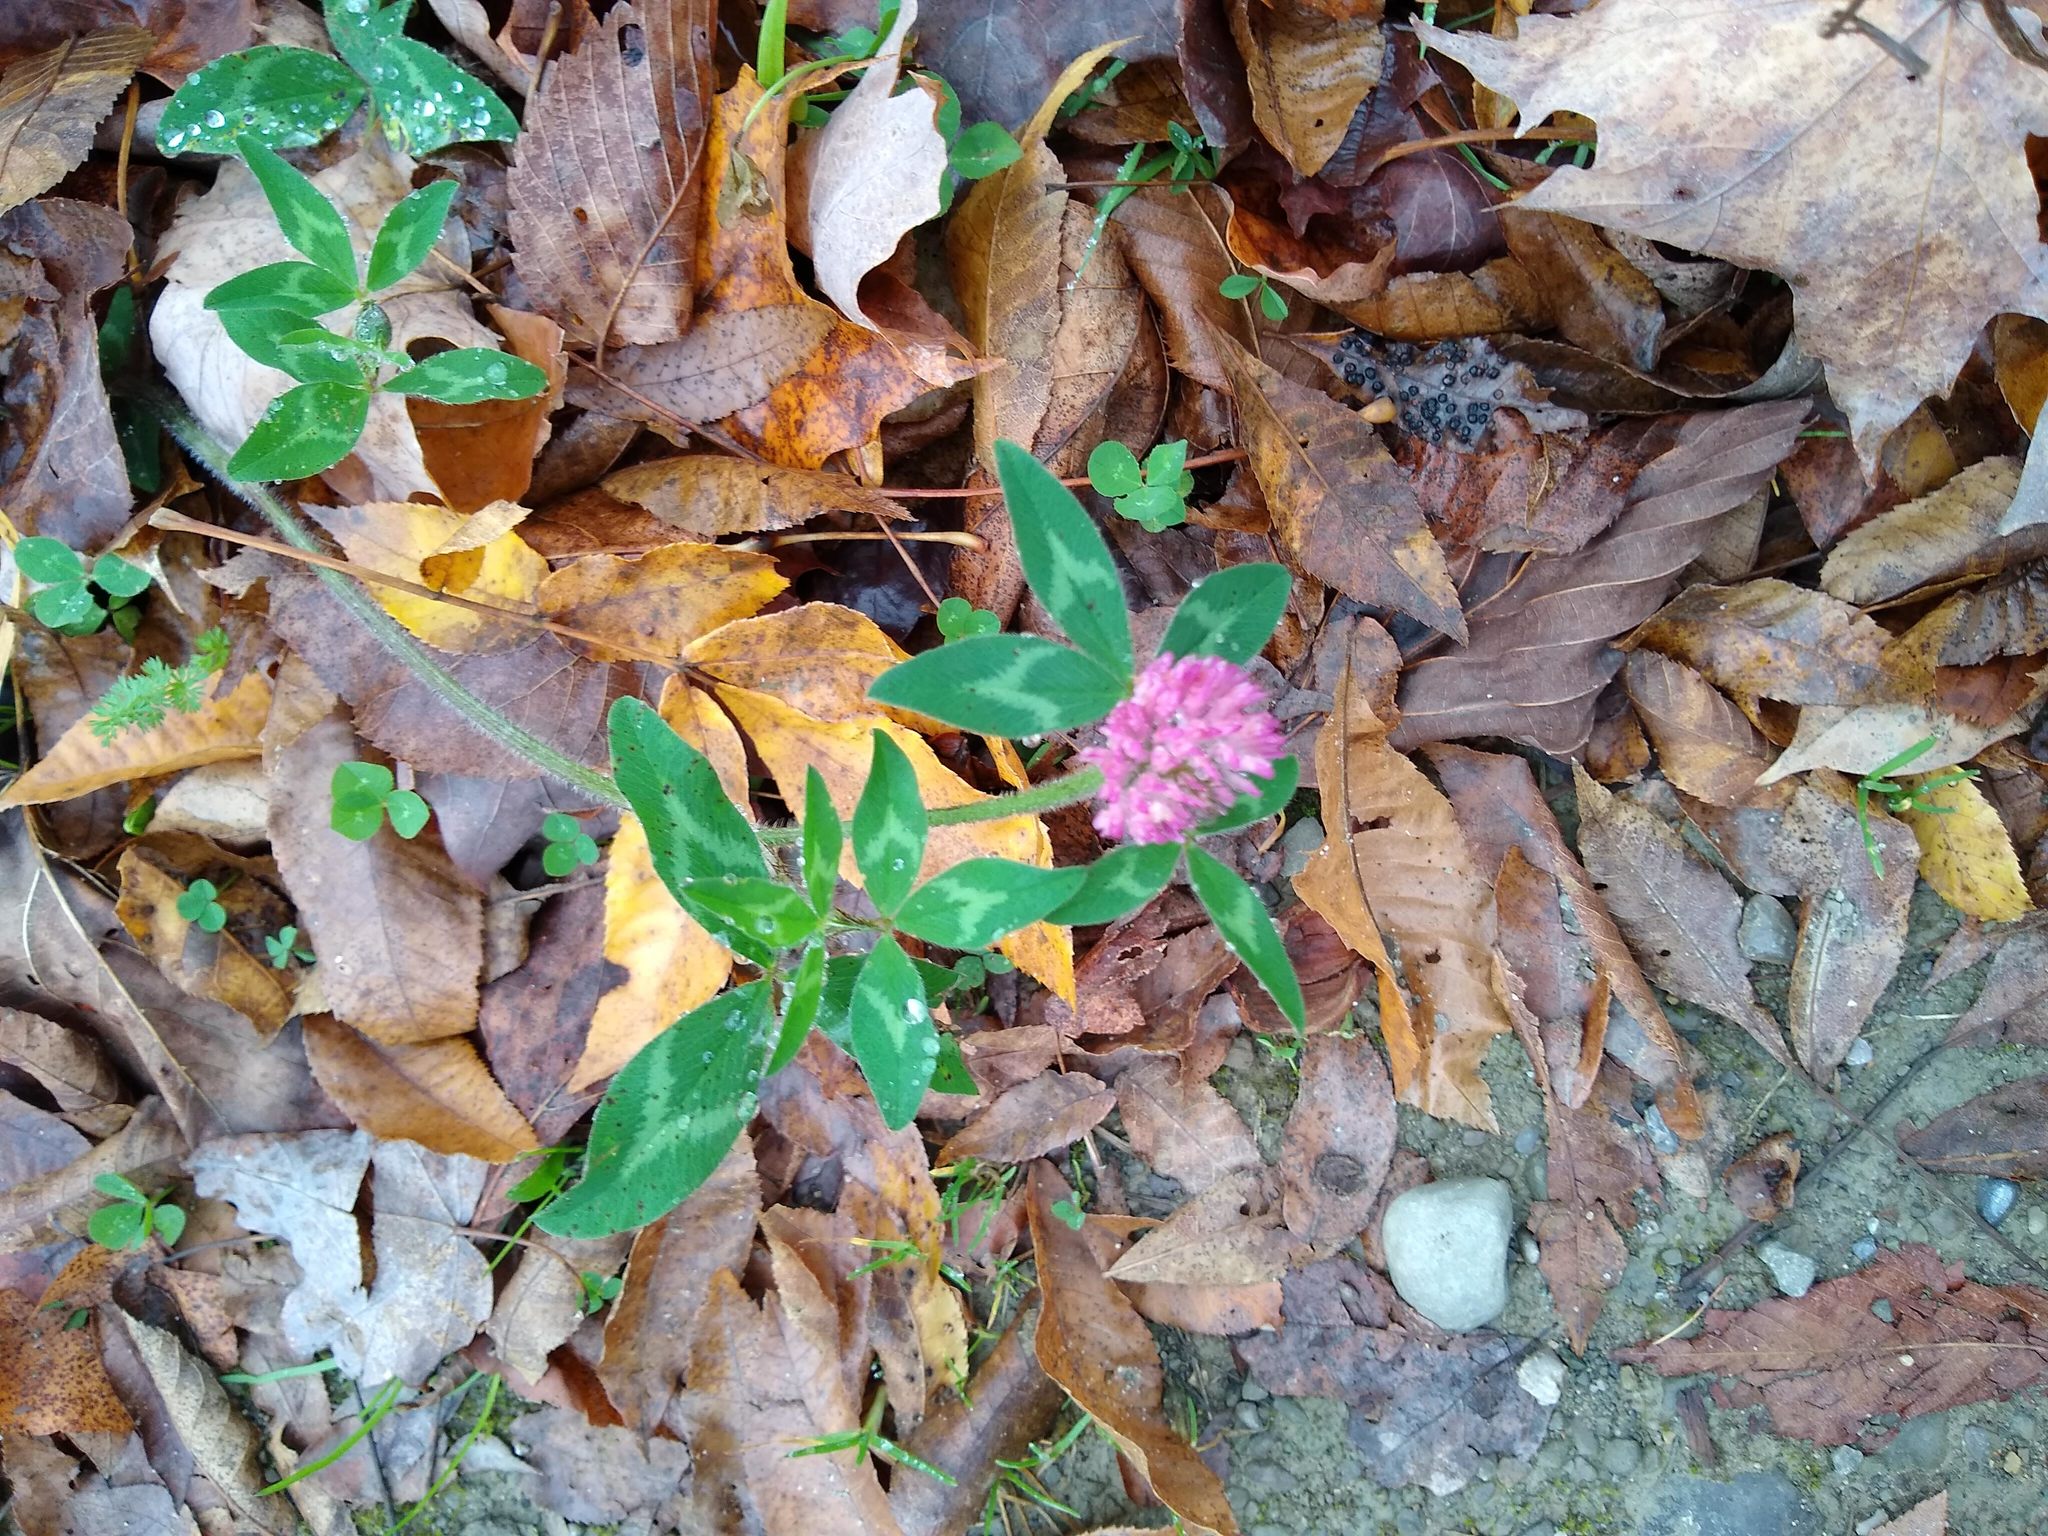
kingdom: Plantae
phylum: Tracheophyta
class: Magnoliopsida
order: Fabales
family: Fabaceae
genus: Trifolium
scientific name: Trifolium pratense
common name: Red clover
